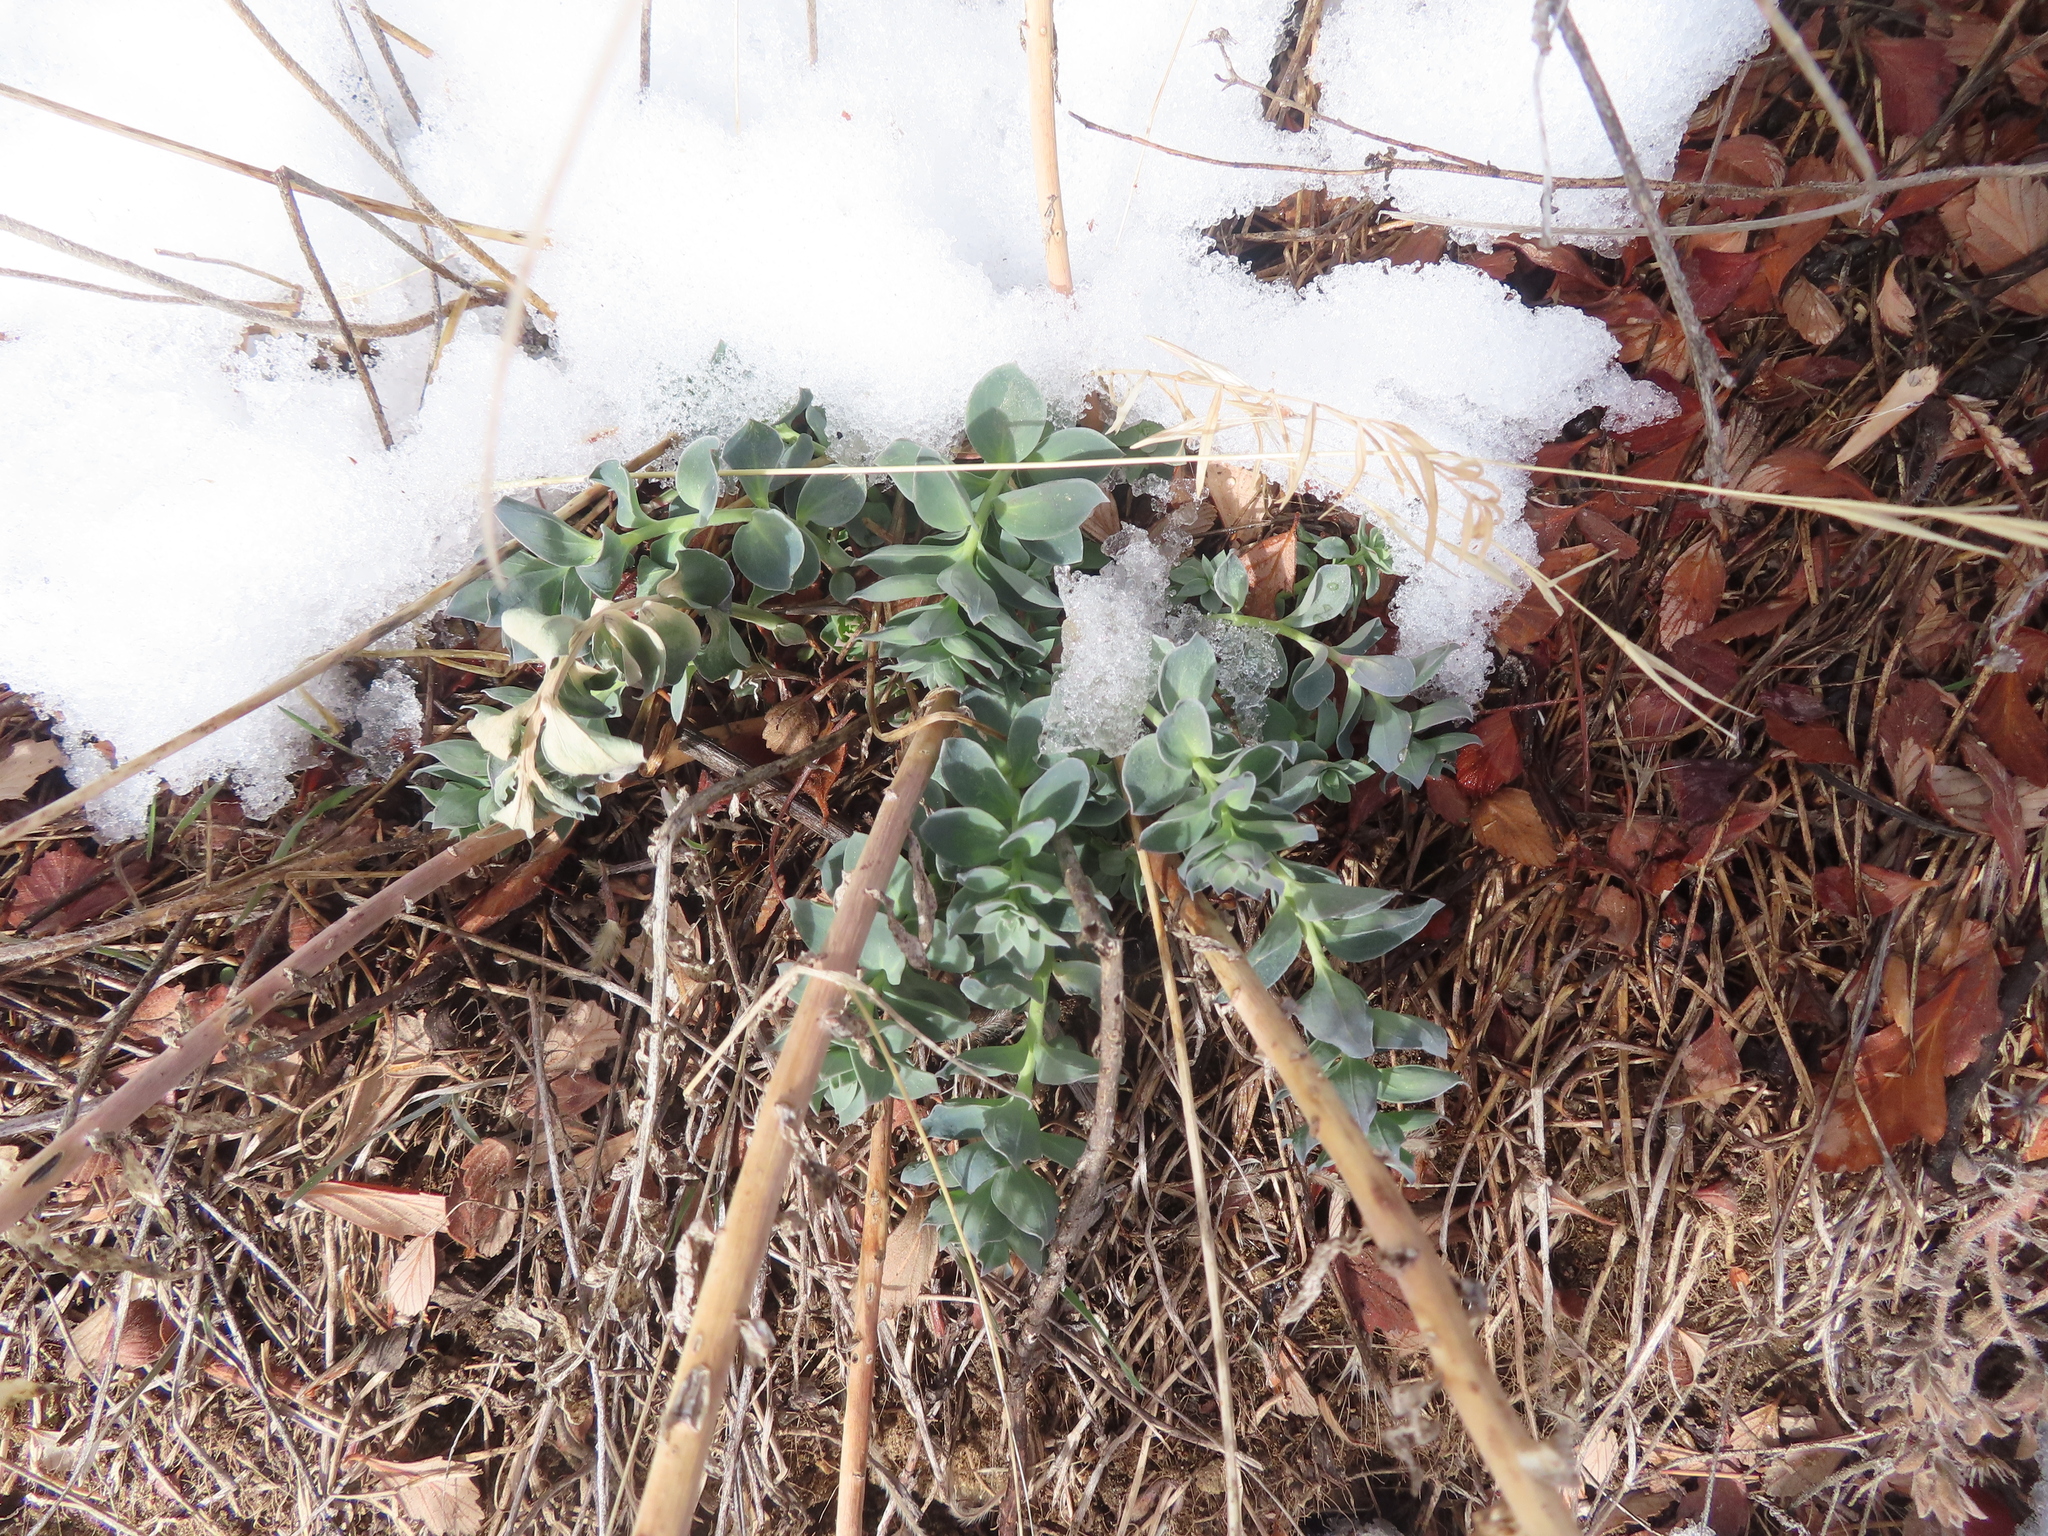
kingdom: Plantae
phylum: Tracheophyta
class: Magnoliopsida
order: Lamiales
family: Plantaginaceae
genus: Linaria
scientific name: Linaria dalmatica
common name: Dalmatian toadflax
